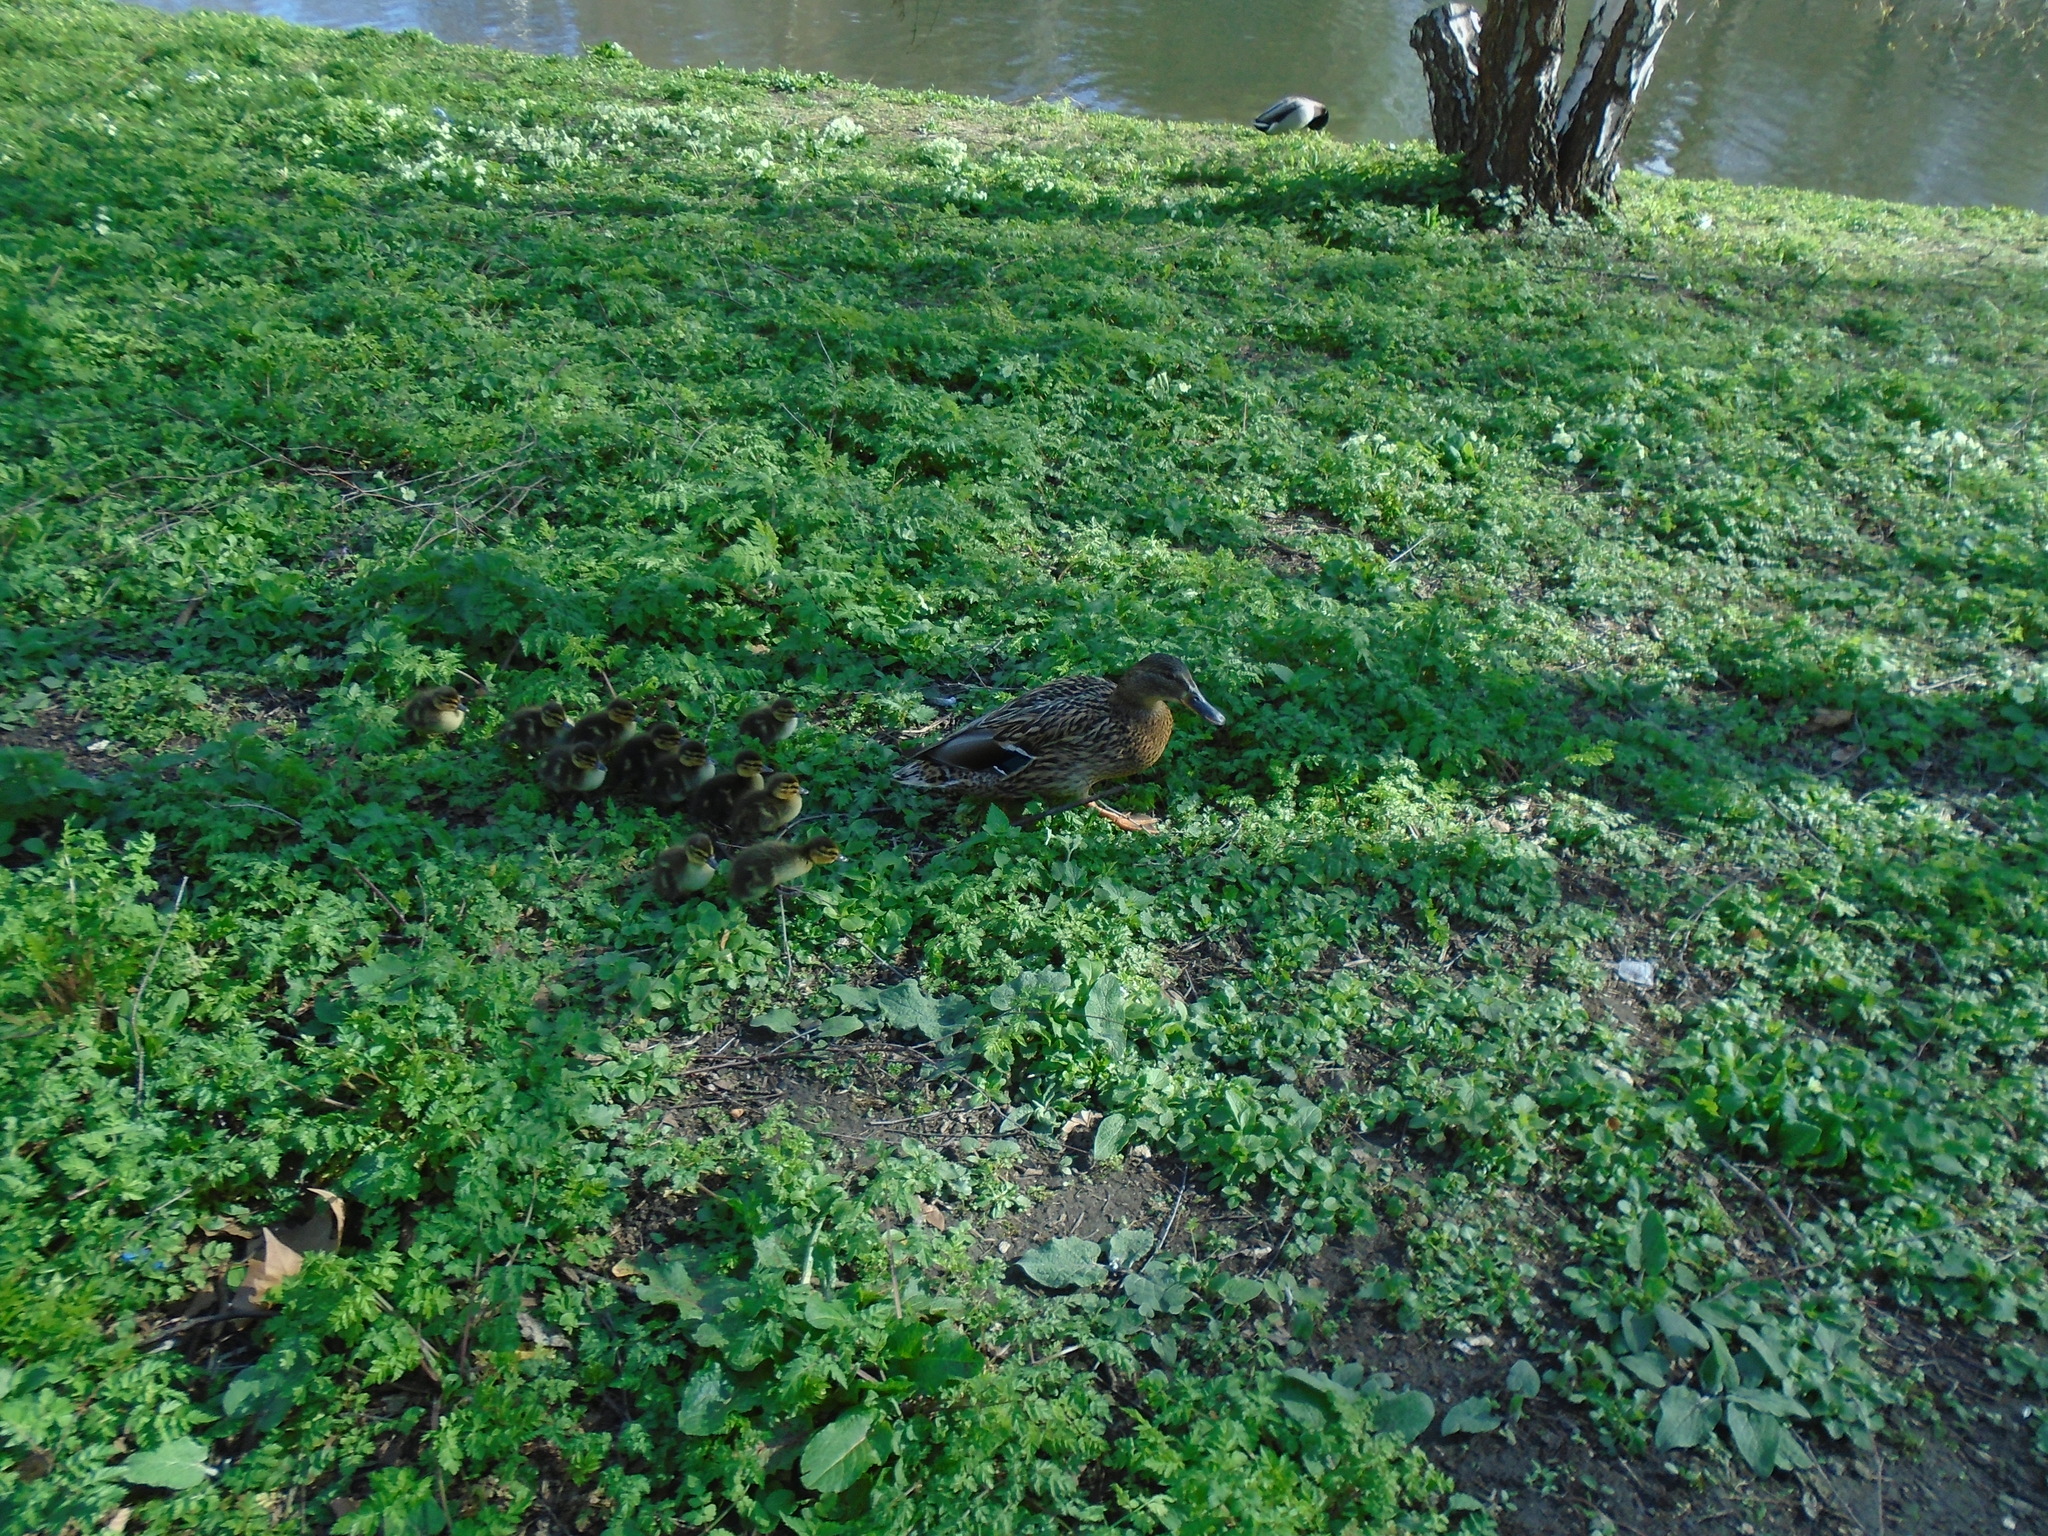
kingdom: Animalia
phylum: Chordata
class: Aves
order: Anseriformes
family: Anatidae
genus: Anas
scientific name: Anas platyrhynchos
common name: Mallard
